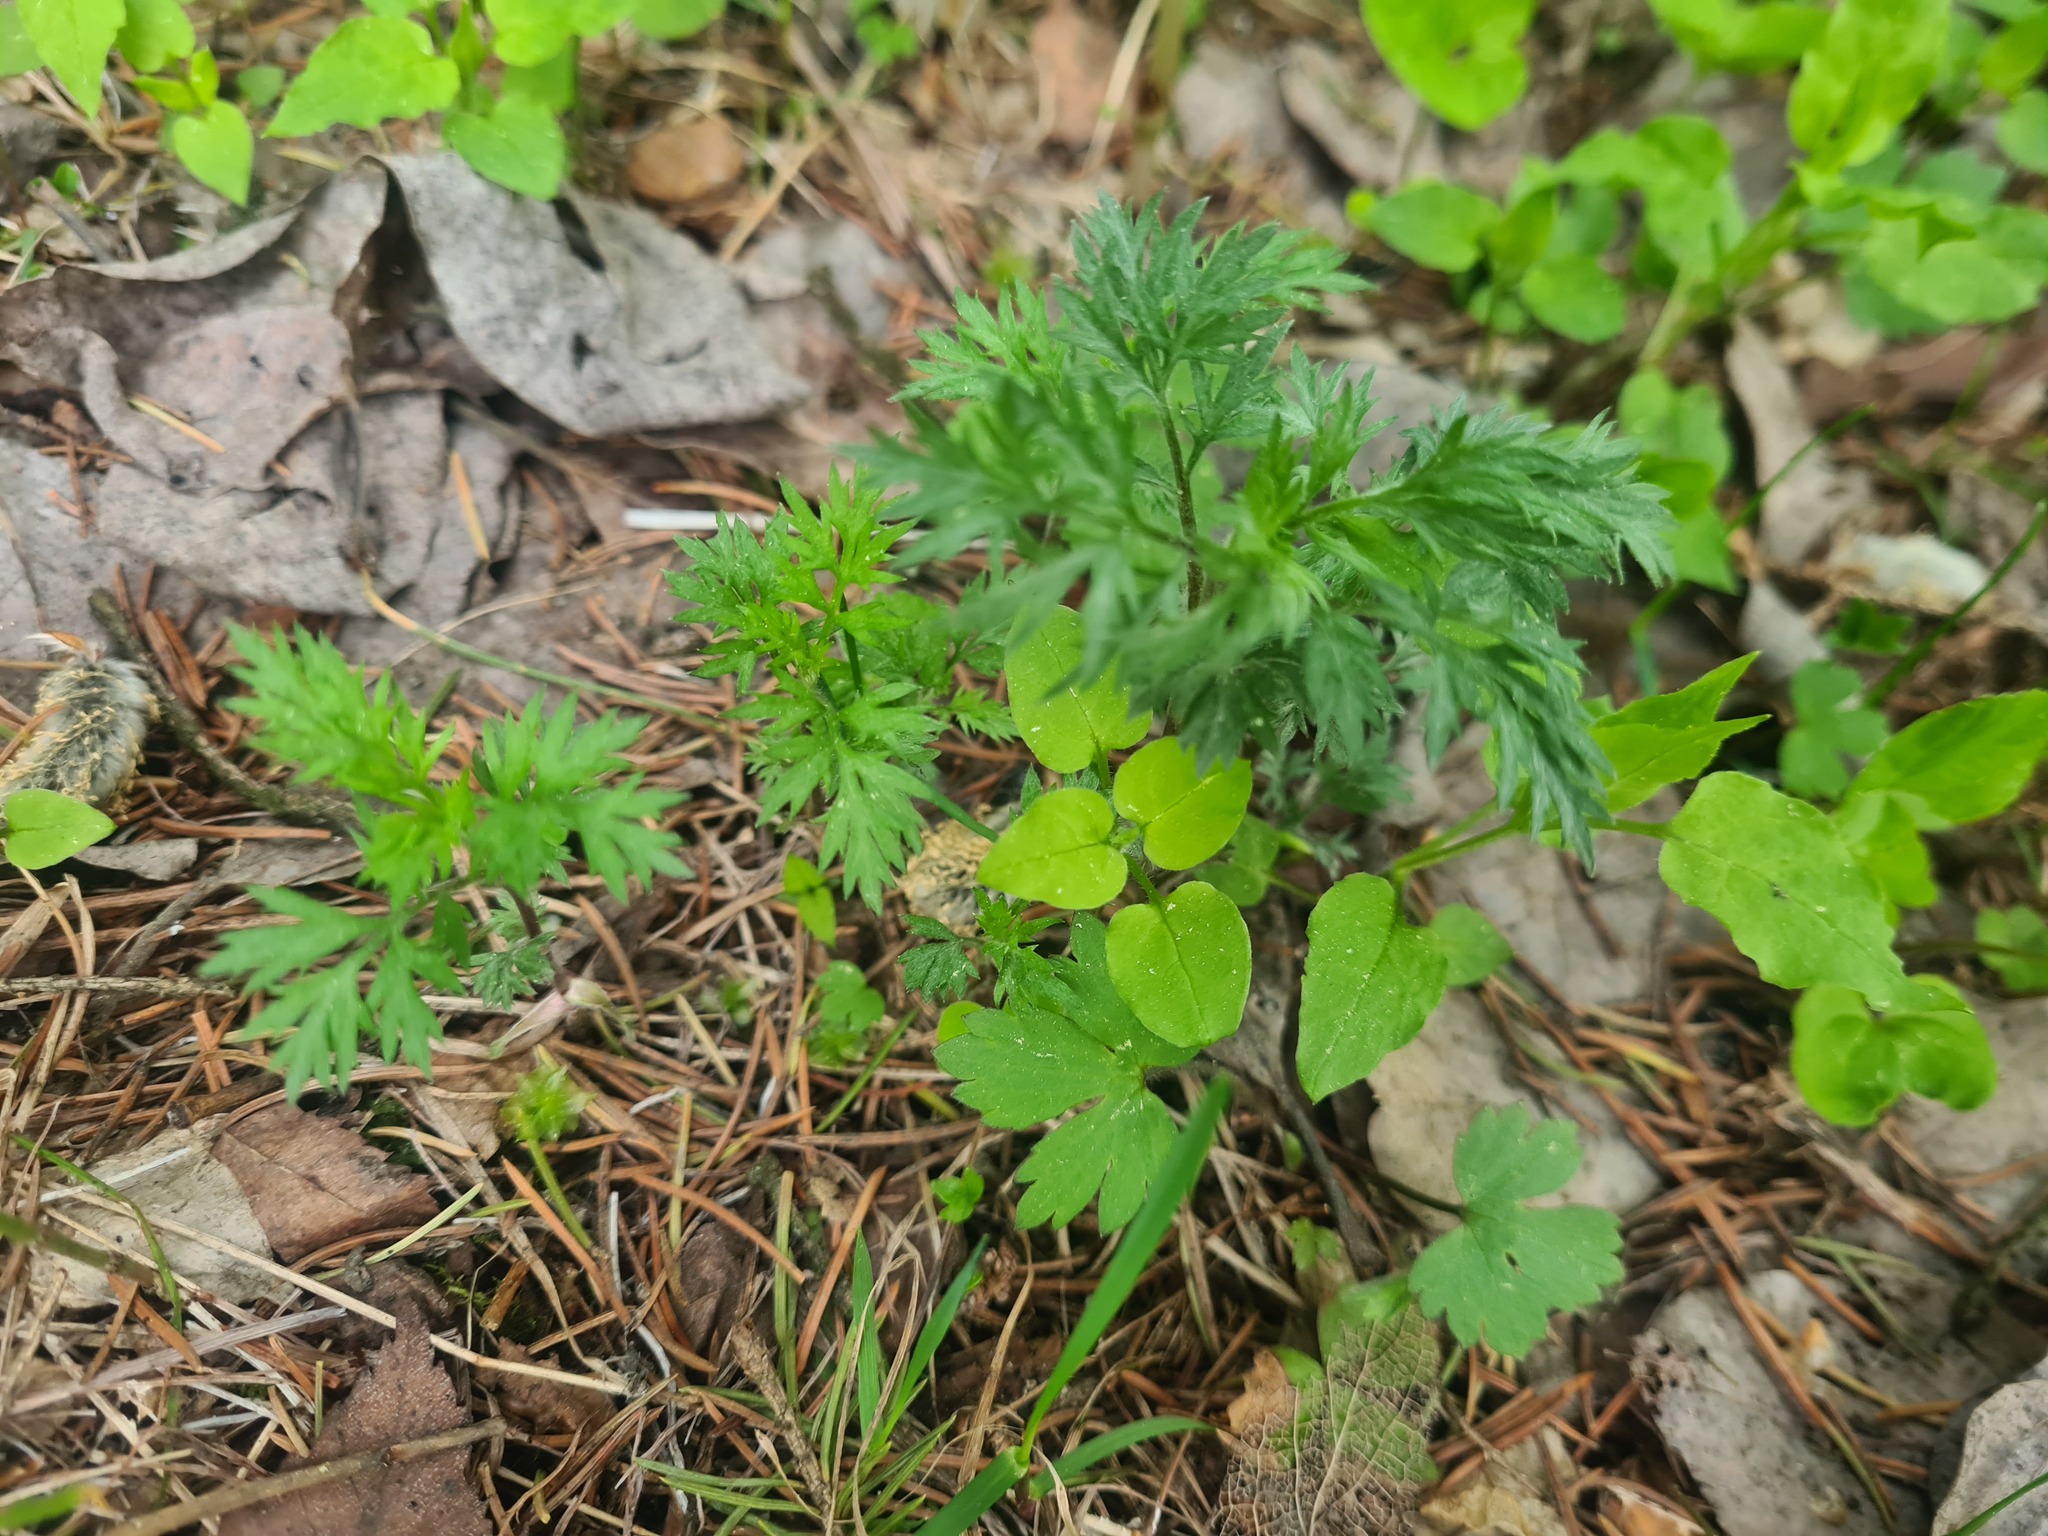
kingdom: Plantae
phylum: Tracheophyta
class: Magnoliopsida
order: Asterales
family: Asteraceae
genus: Artemisia
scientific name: Artemisia vulgaris
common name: Mugwort
